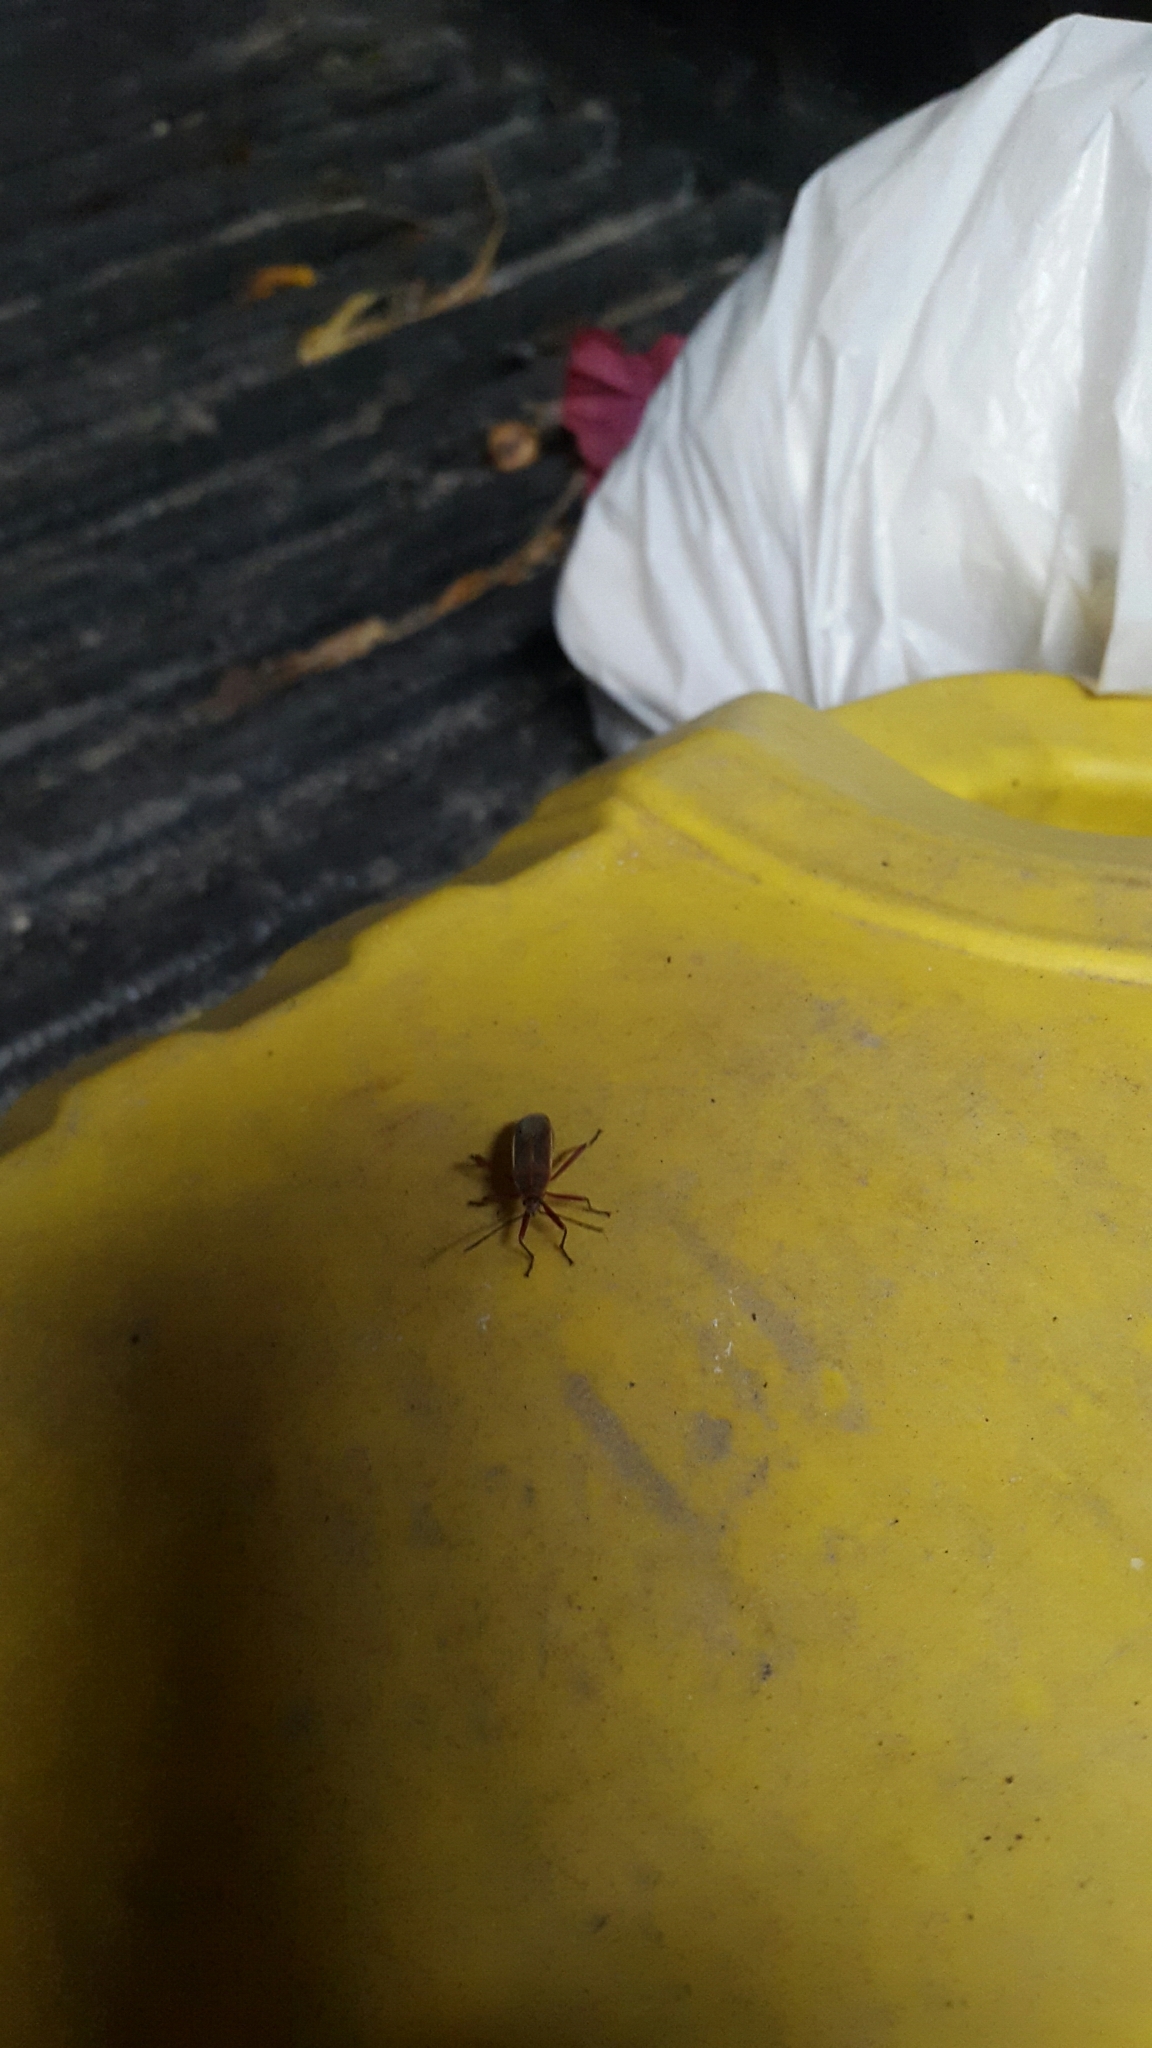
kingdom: Animalia
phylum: Arthropoda
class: Insecta
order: Hemiptera
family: Largidae
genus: Stenomacra
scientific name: Stenomacra marginella
